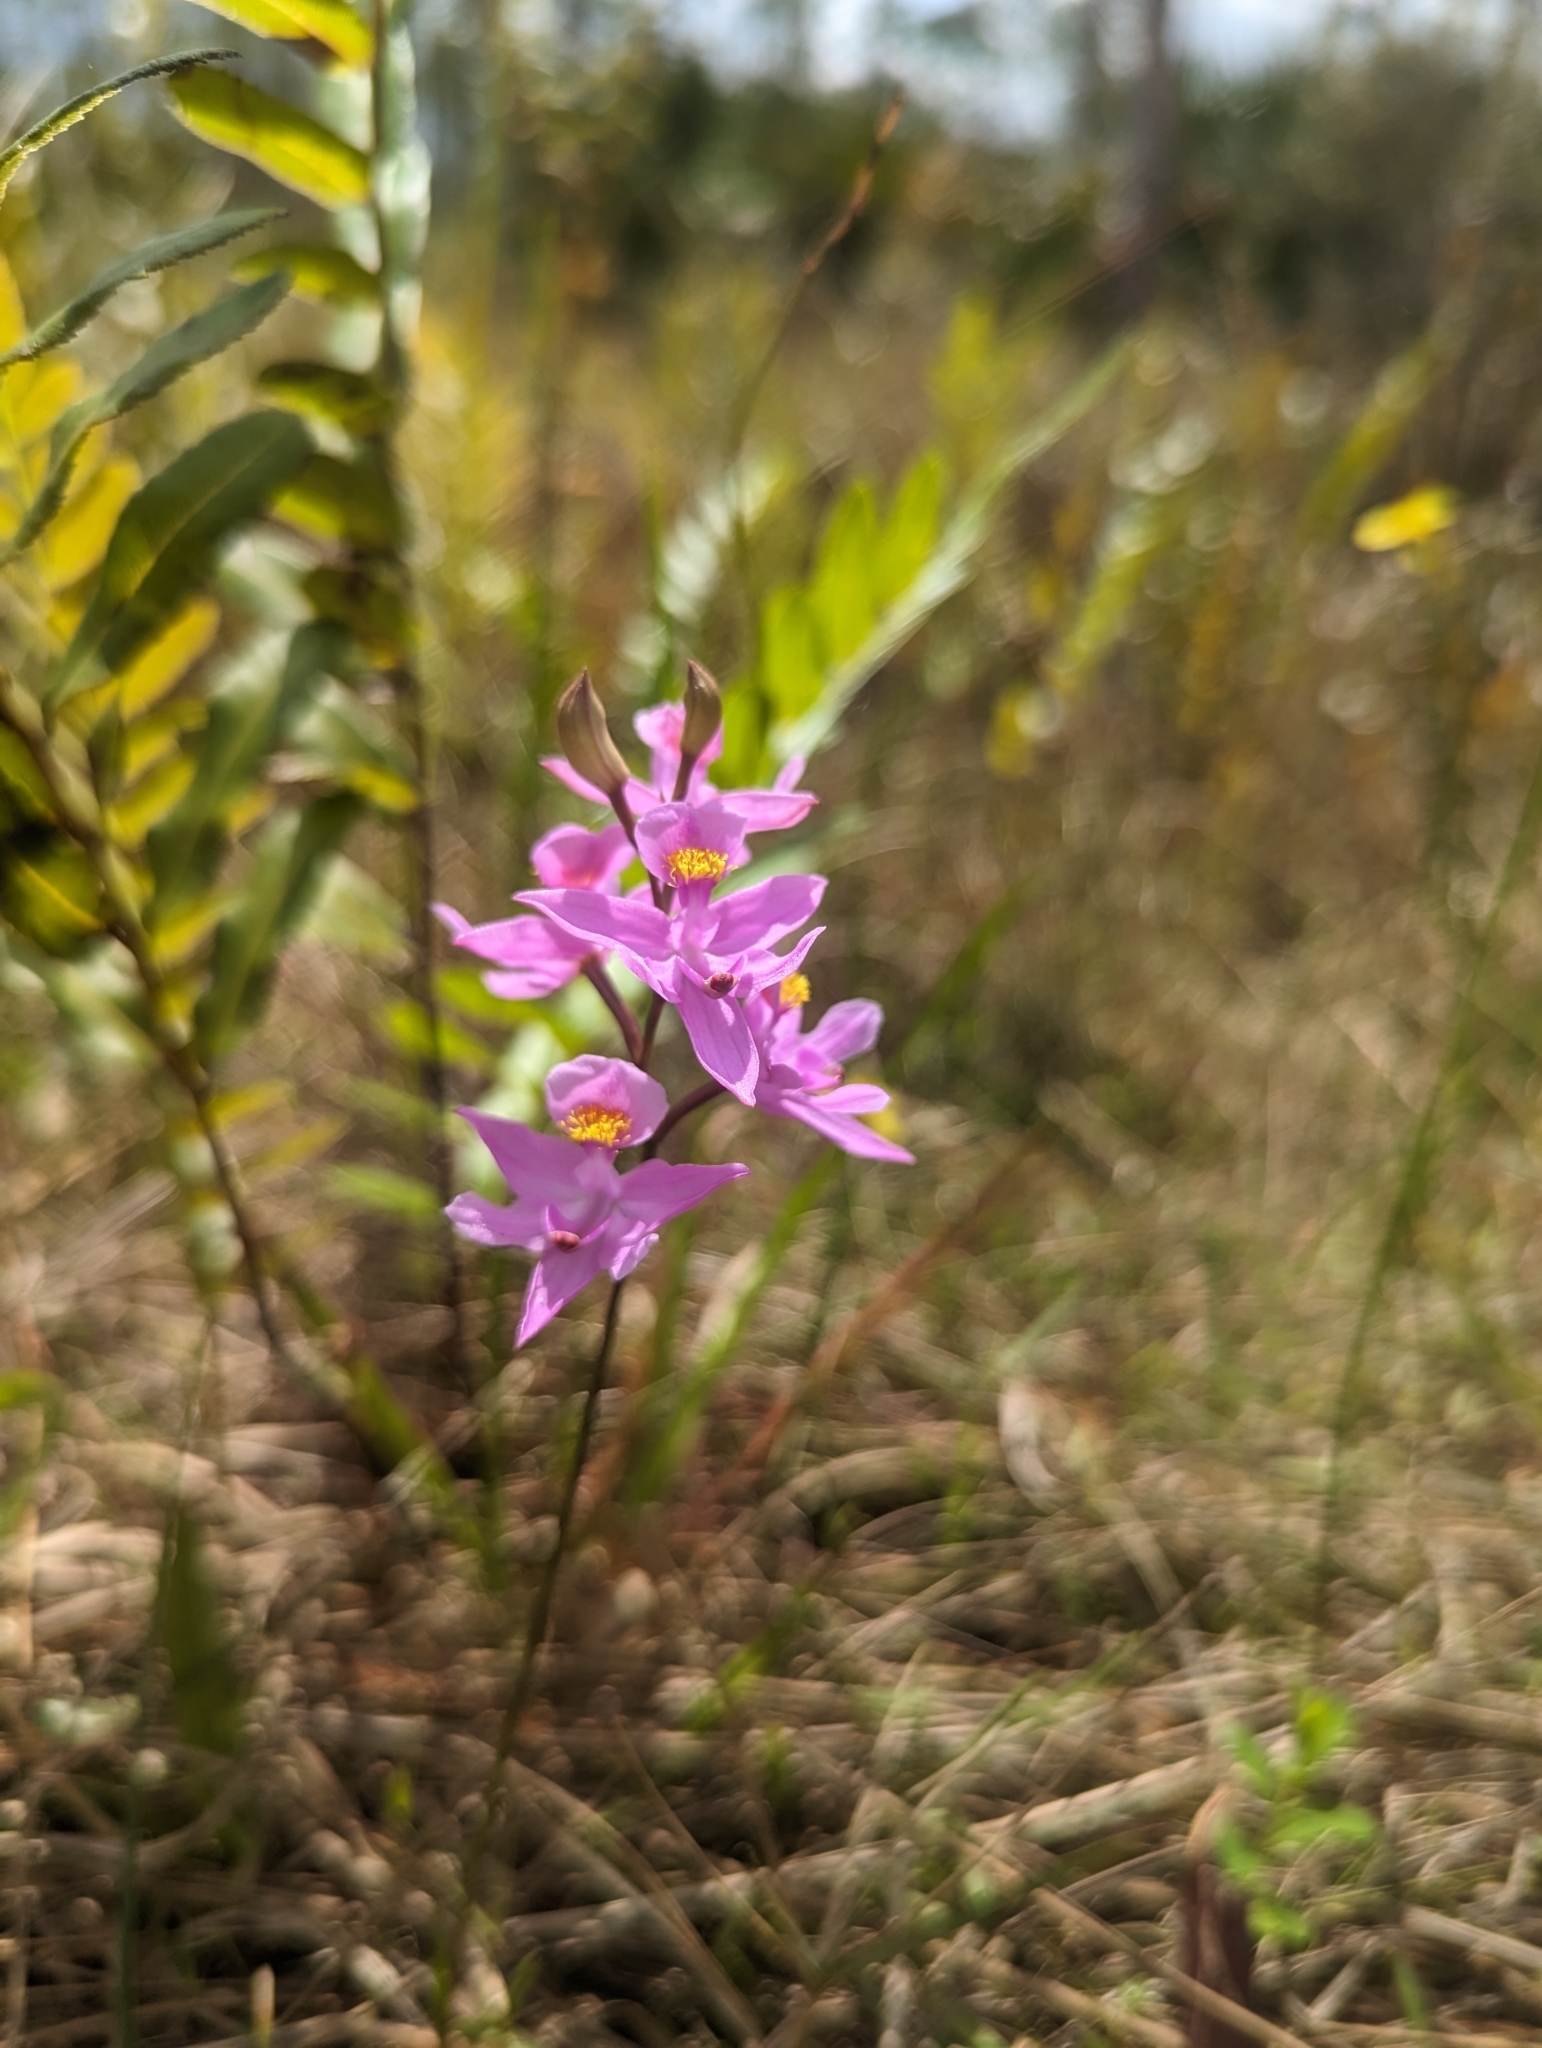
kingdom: Plantae
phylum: Tracheophyta
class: Liliopsida
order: Asparagales
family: Orchidaceae
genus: Calopogon
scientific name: Calopogon barbatus
